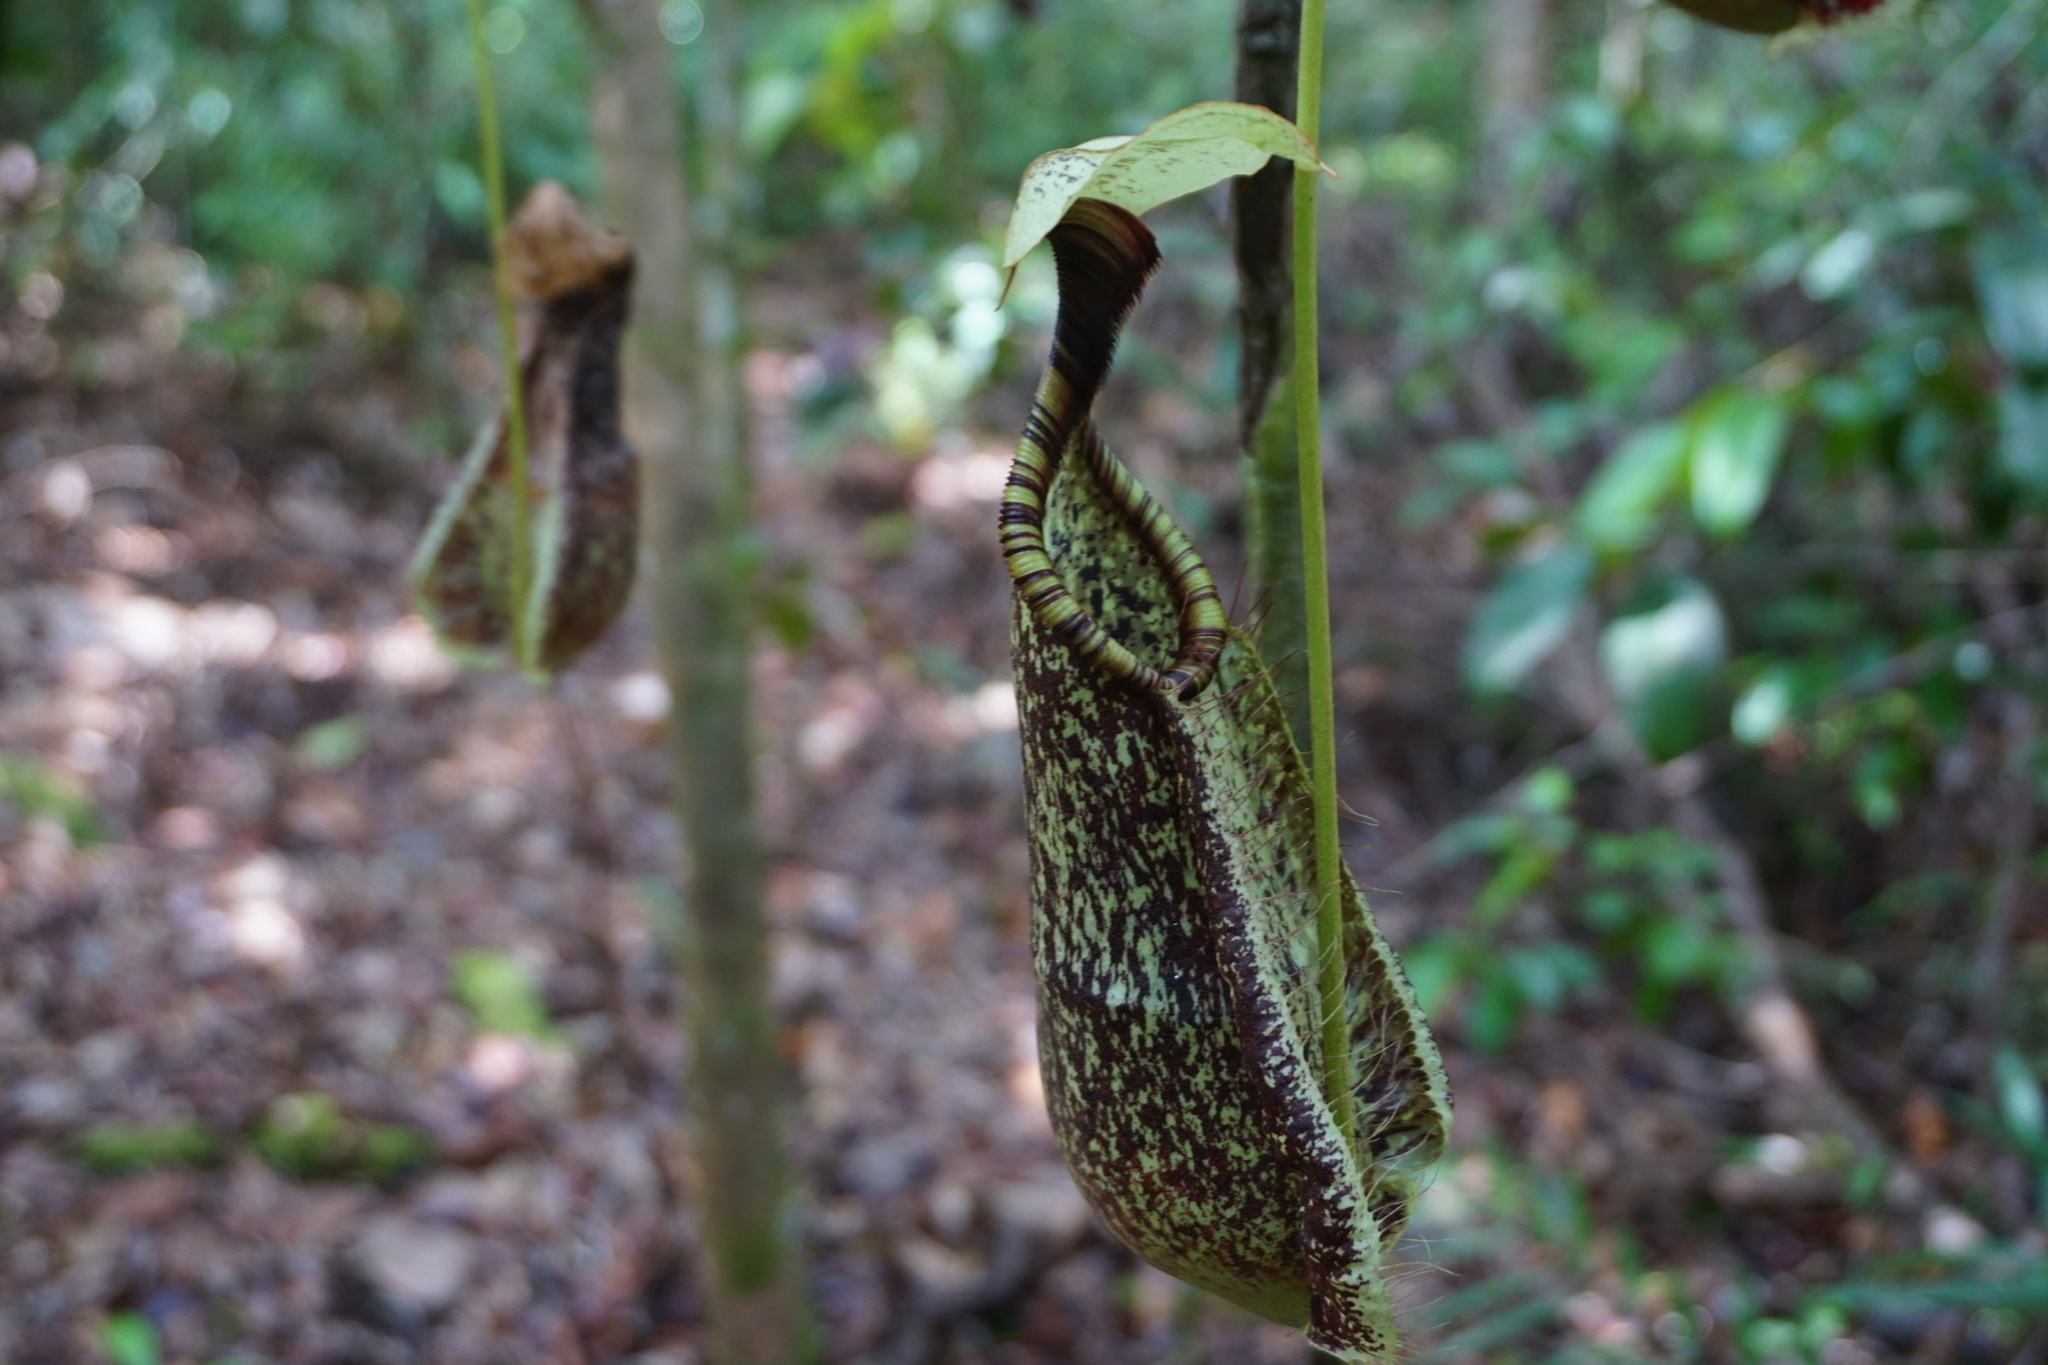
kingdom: Plantae
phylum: Tracheophyta
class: Magnoliopsida
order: Caryophyllales
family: Nepenthaceae
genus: Nepenthes
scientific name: Nepenthes rafflesiana
